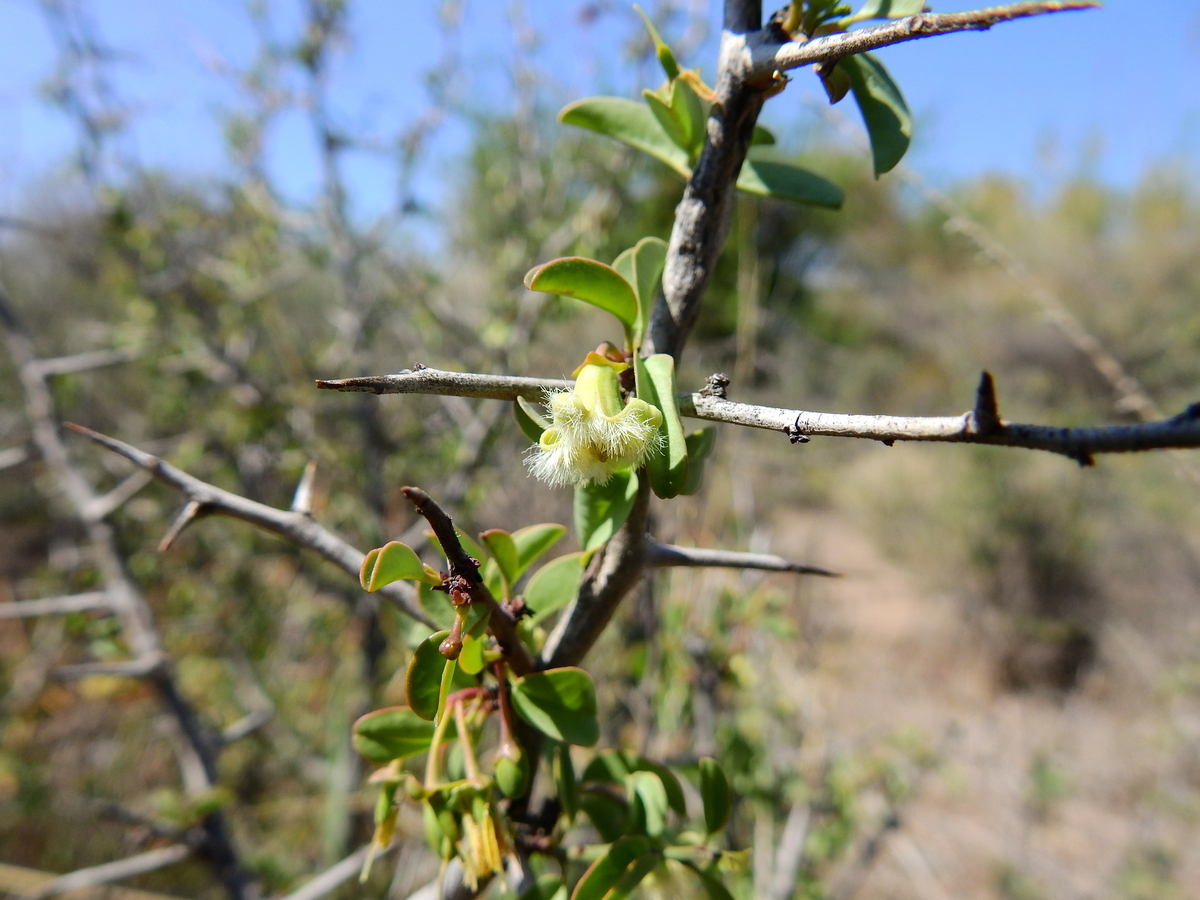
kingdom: Plantae
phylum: Tracheophyta
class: Magnoliopsida
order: Santalales
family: Ximeniaceae
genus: Ximenia
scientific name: Ximenia americana
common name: Tallowwood
